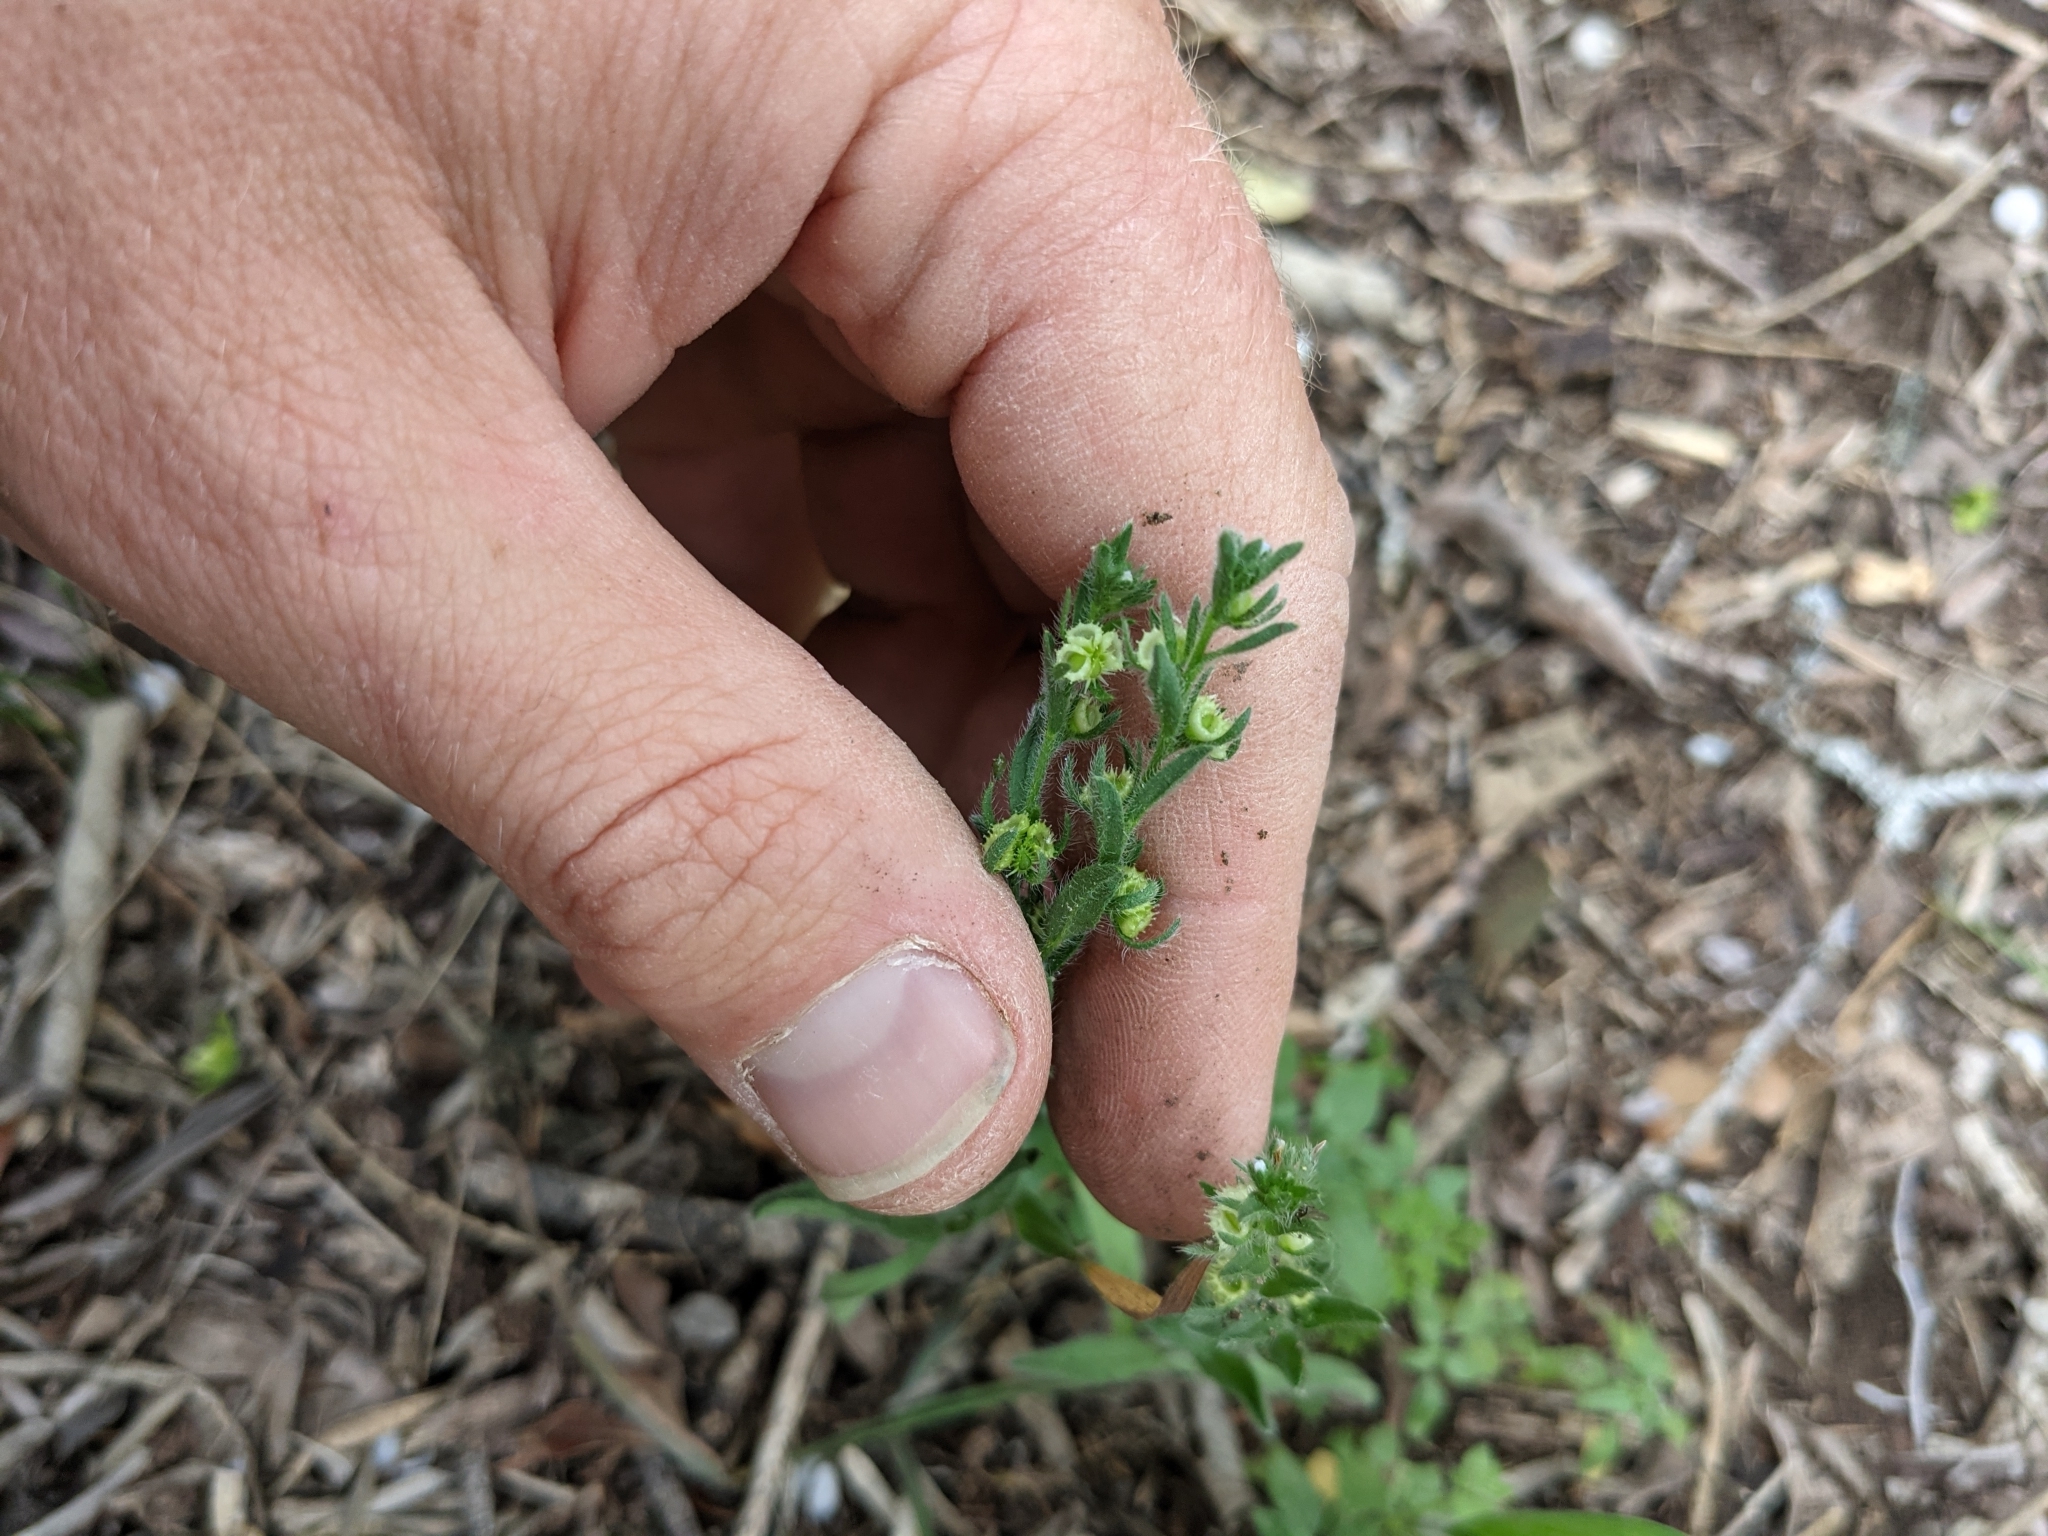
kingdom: Plantae
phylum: Tracheophyta
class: Magnoliopsida
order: Boraginales
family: Boraginaceae
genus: Lappula
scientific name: Lappula occidentalis
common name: Western stickseed
